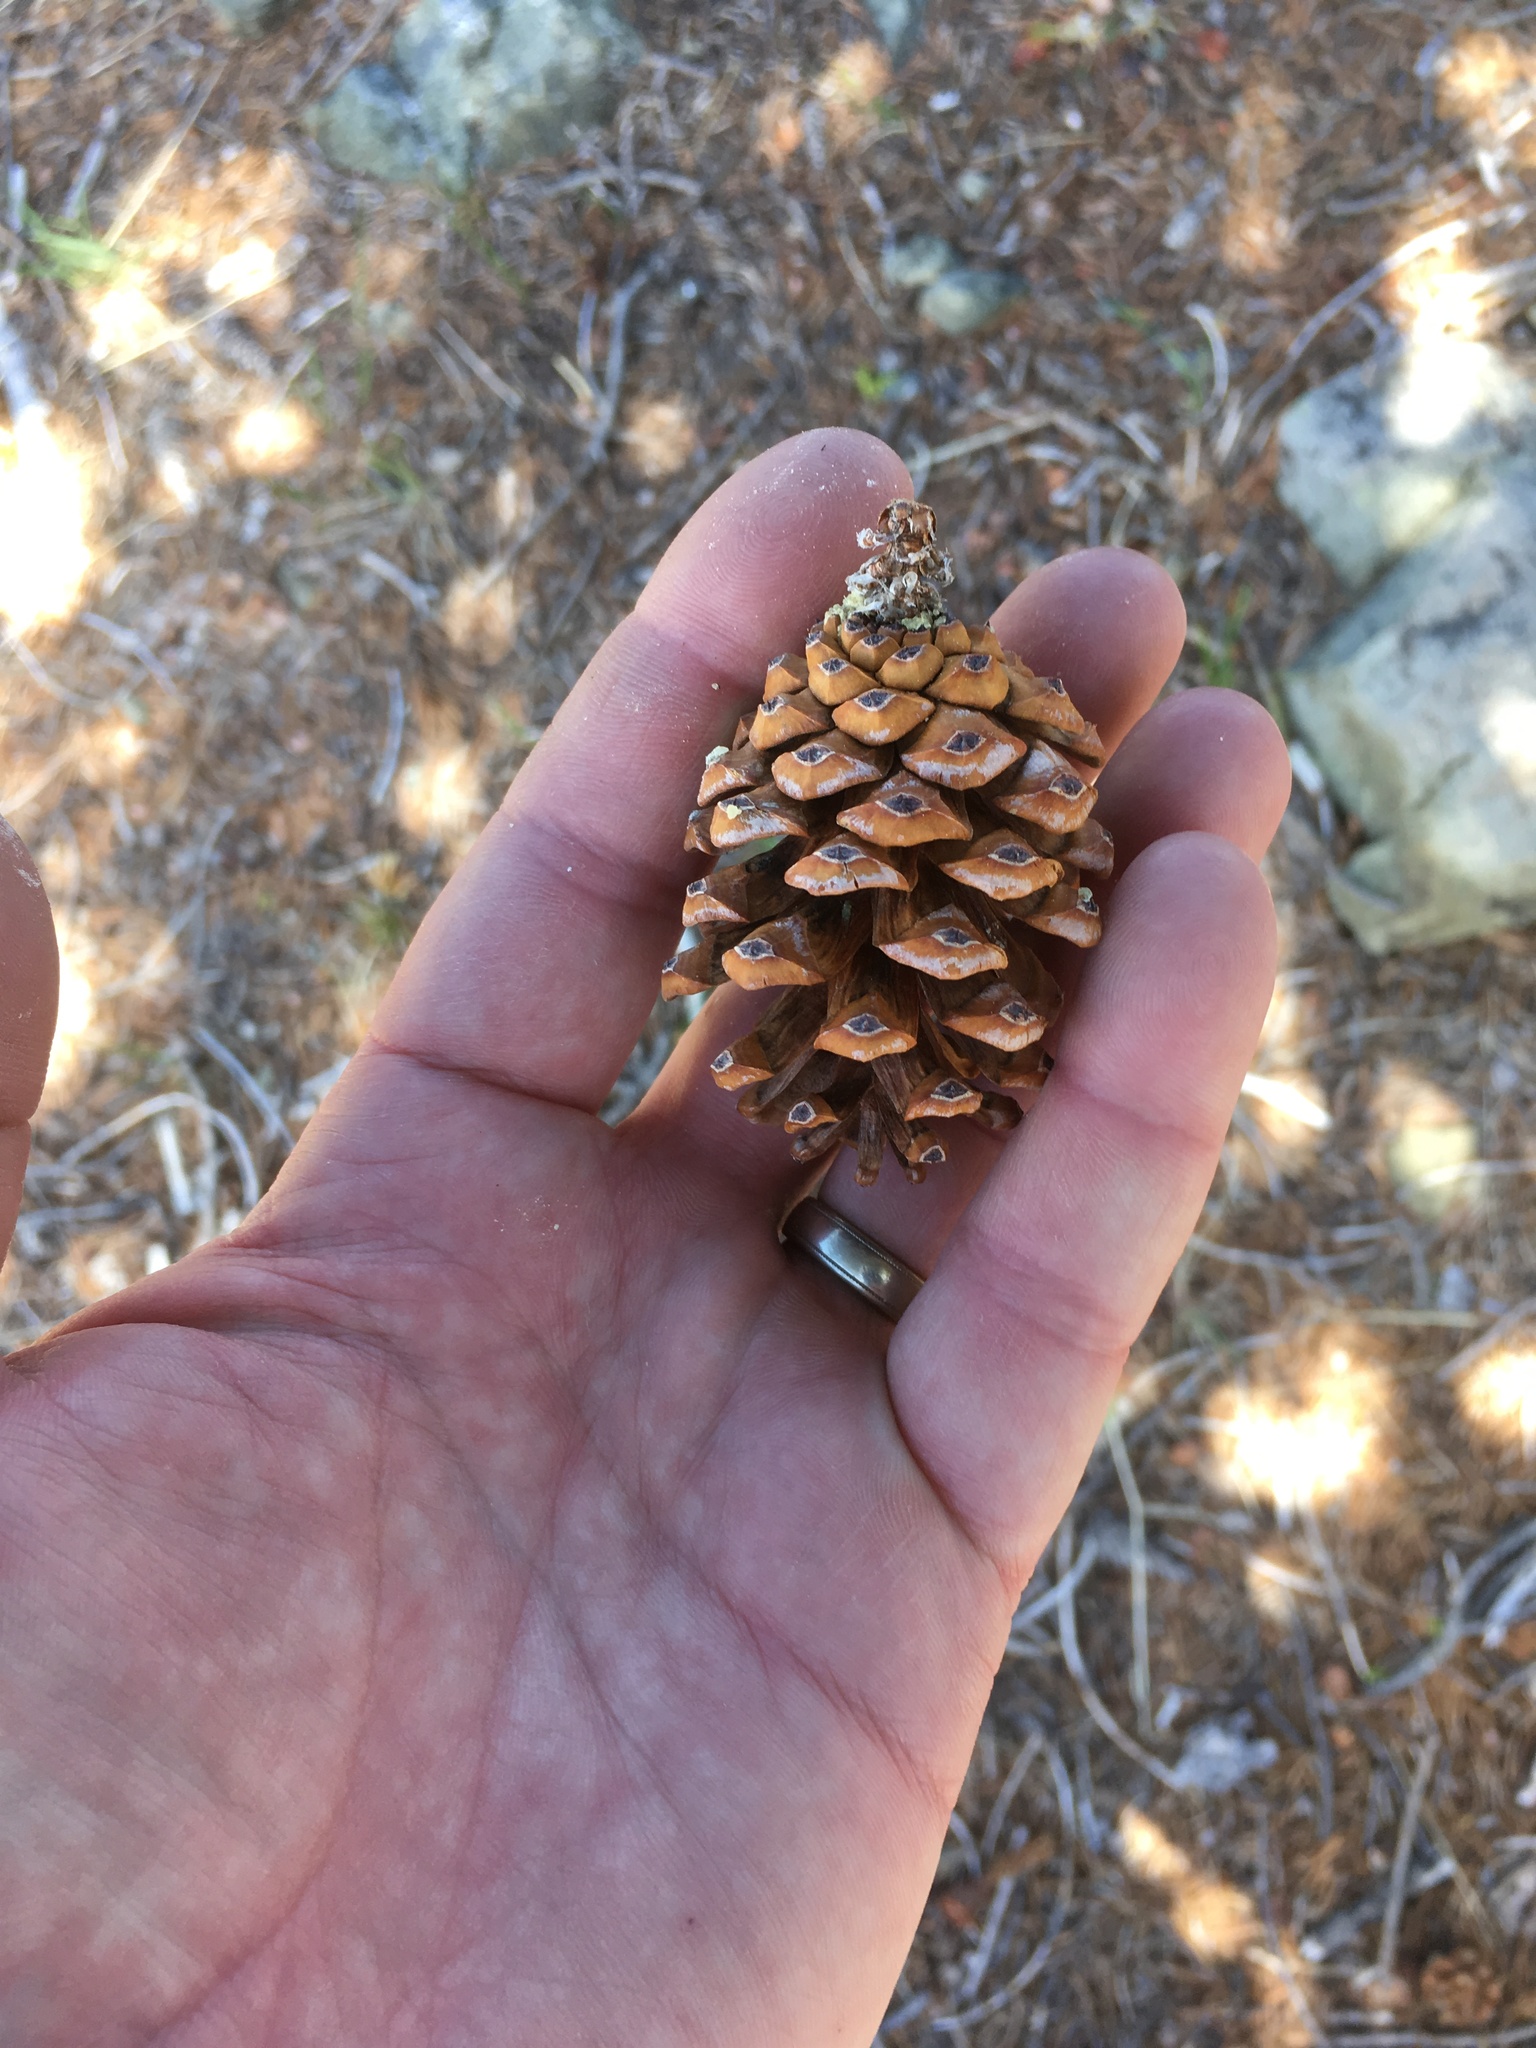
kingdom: Plantae
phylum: Tracheophyta
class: Pinopsida
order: Pinales
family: Pinaceae
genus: Pinus
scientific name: Pinus balfouriana
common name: Foxtail pine
